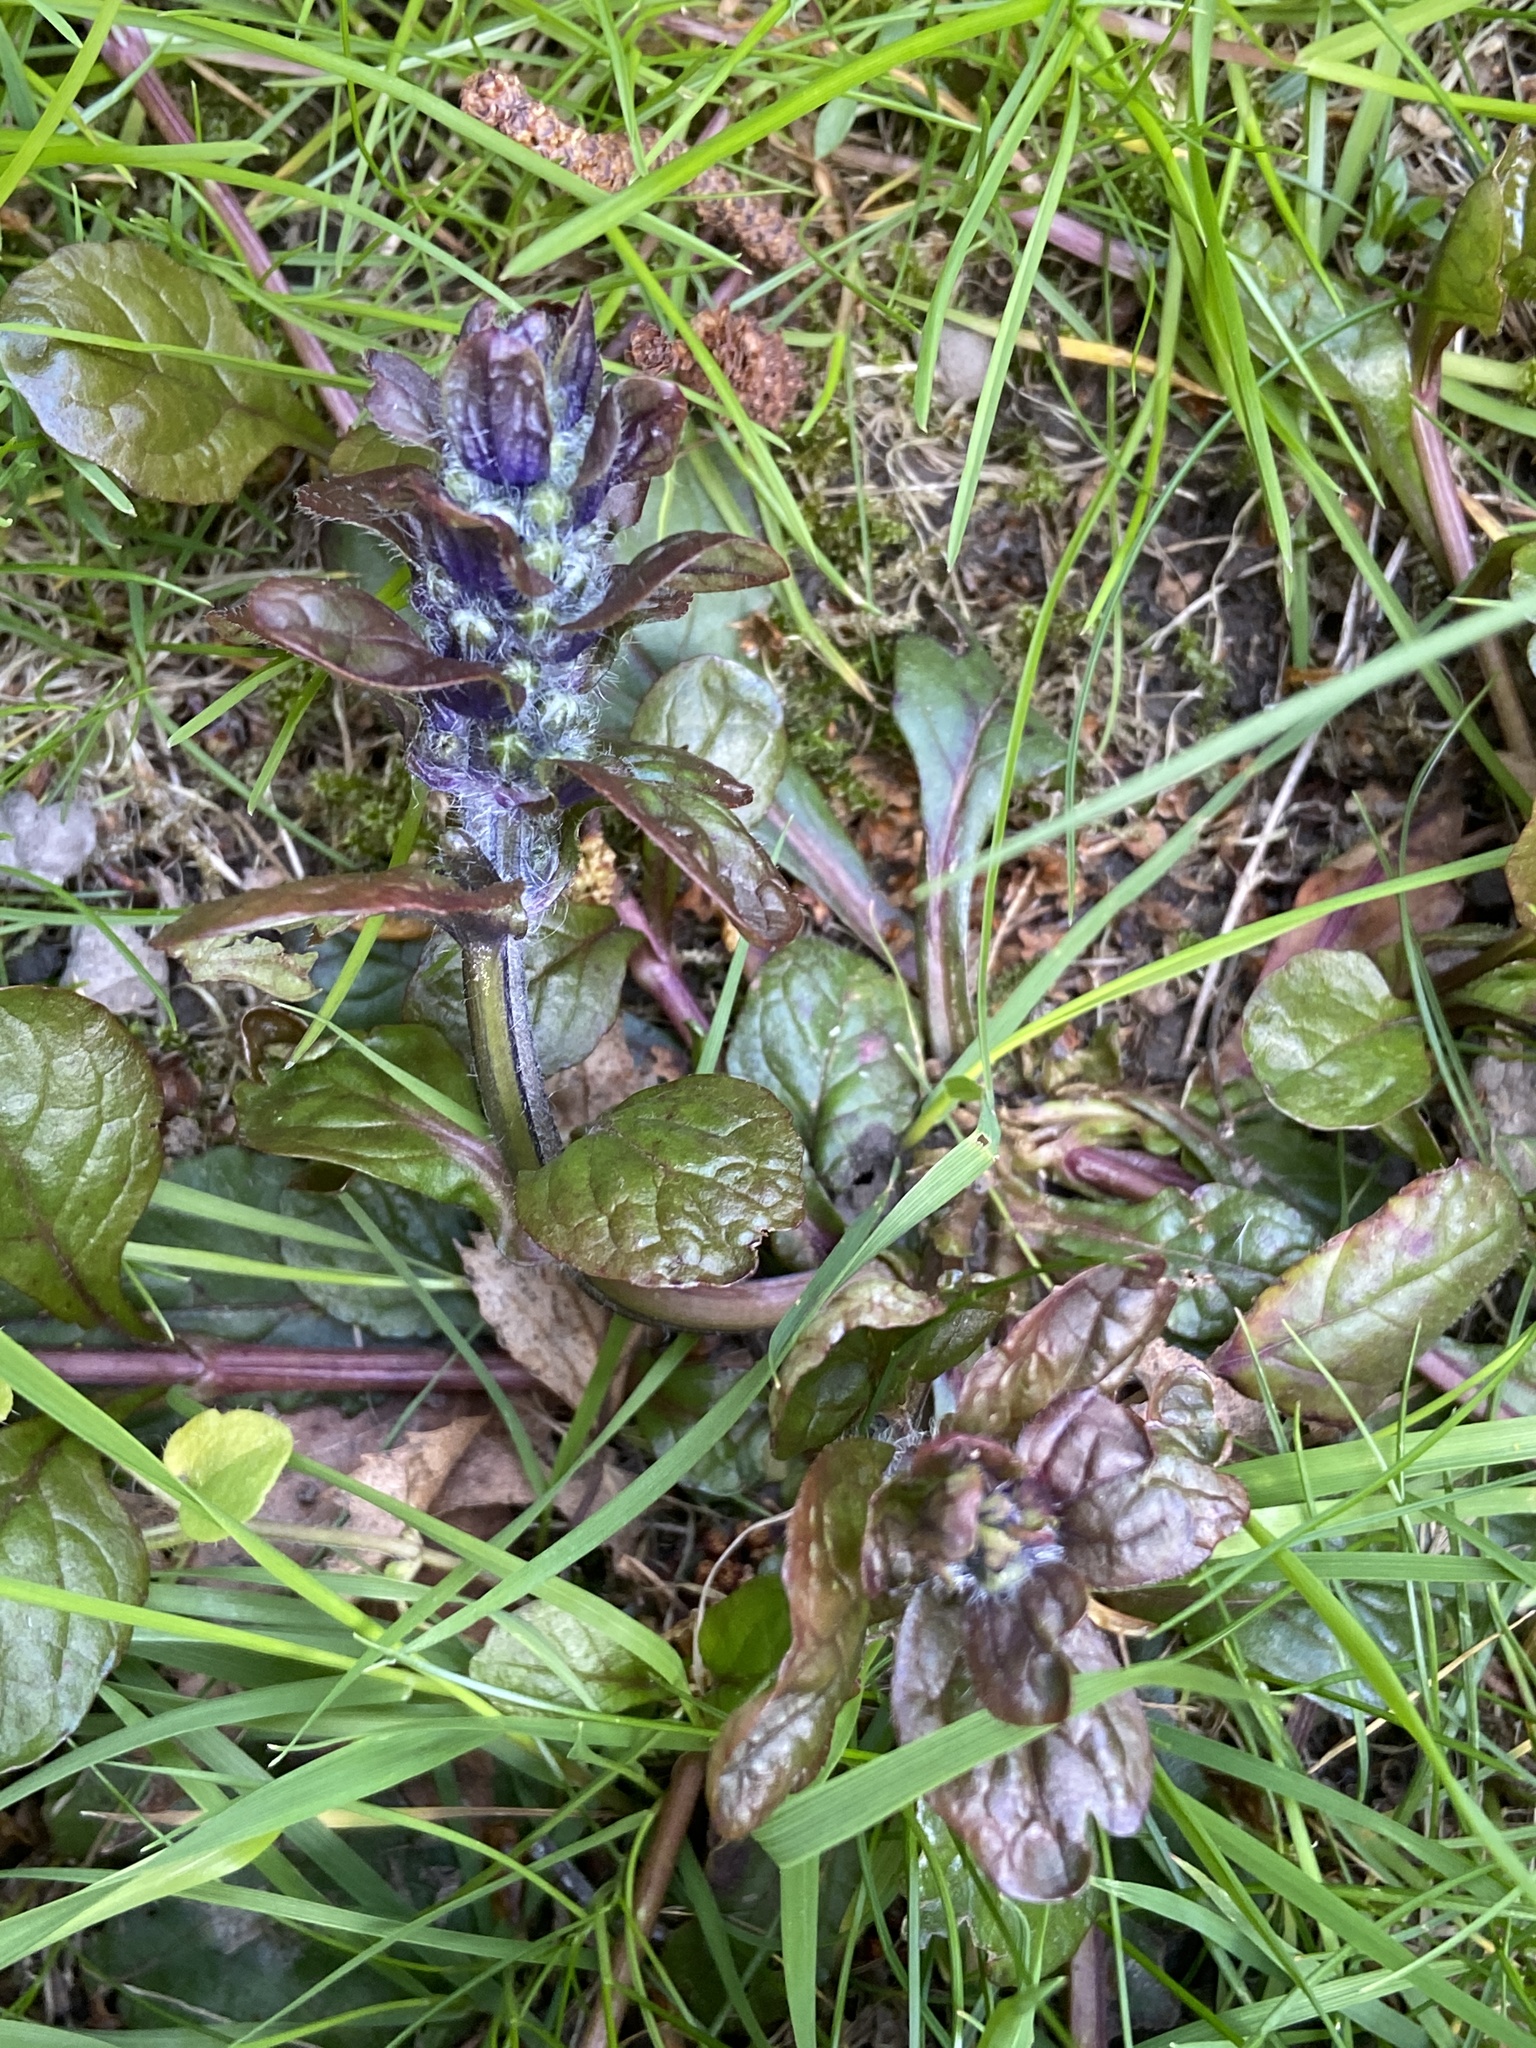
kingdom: Plantae
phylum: Tracheophyta
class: Magnoliopsida
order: Lamiales
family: Lamiaceae
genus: Ajuga
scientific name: Ajuga reptans
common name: Bugle
